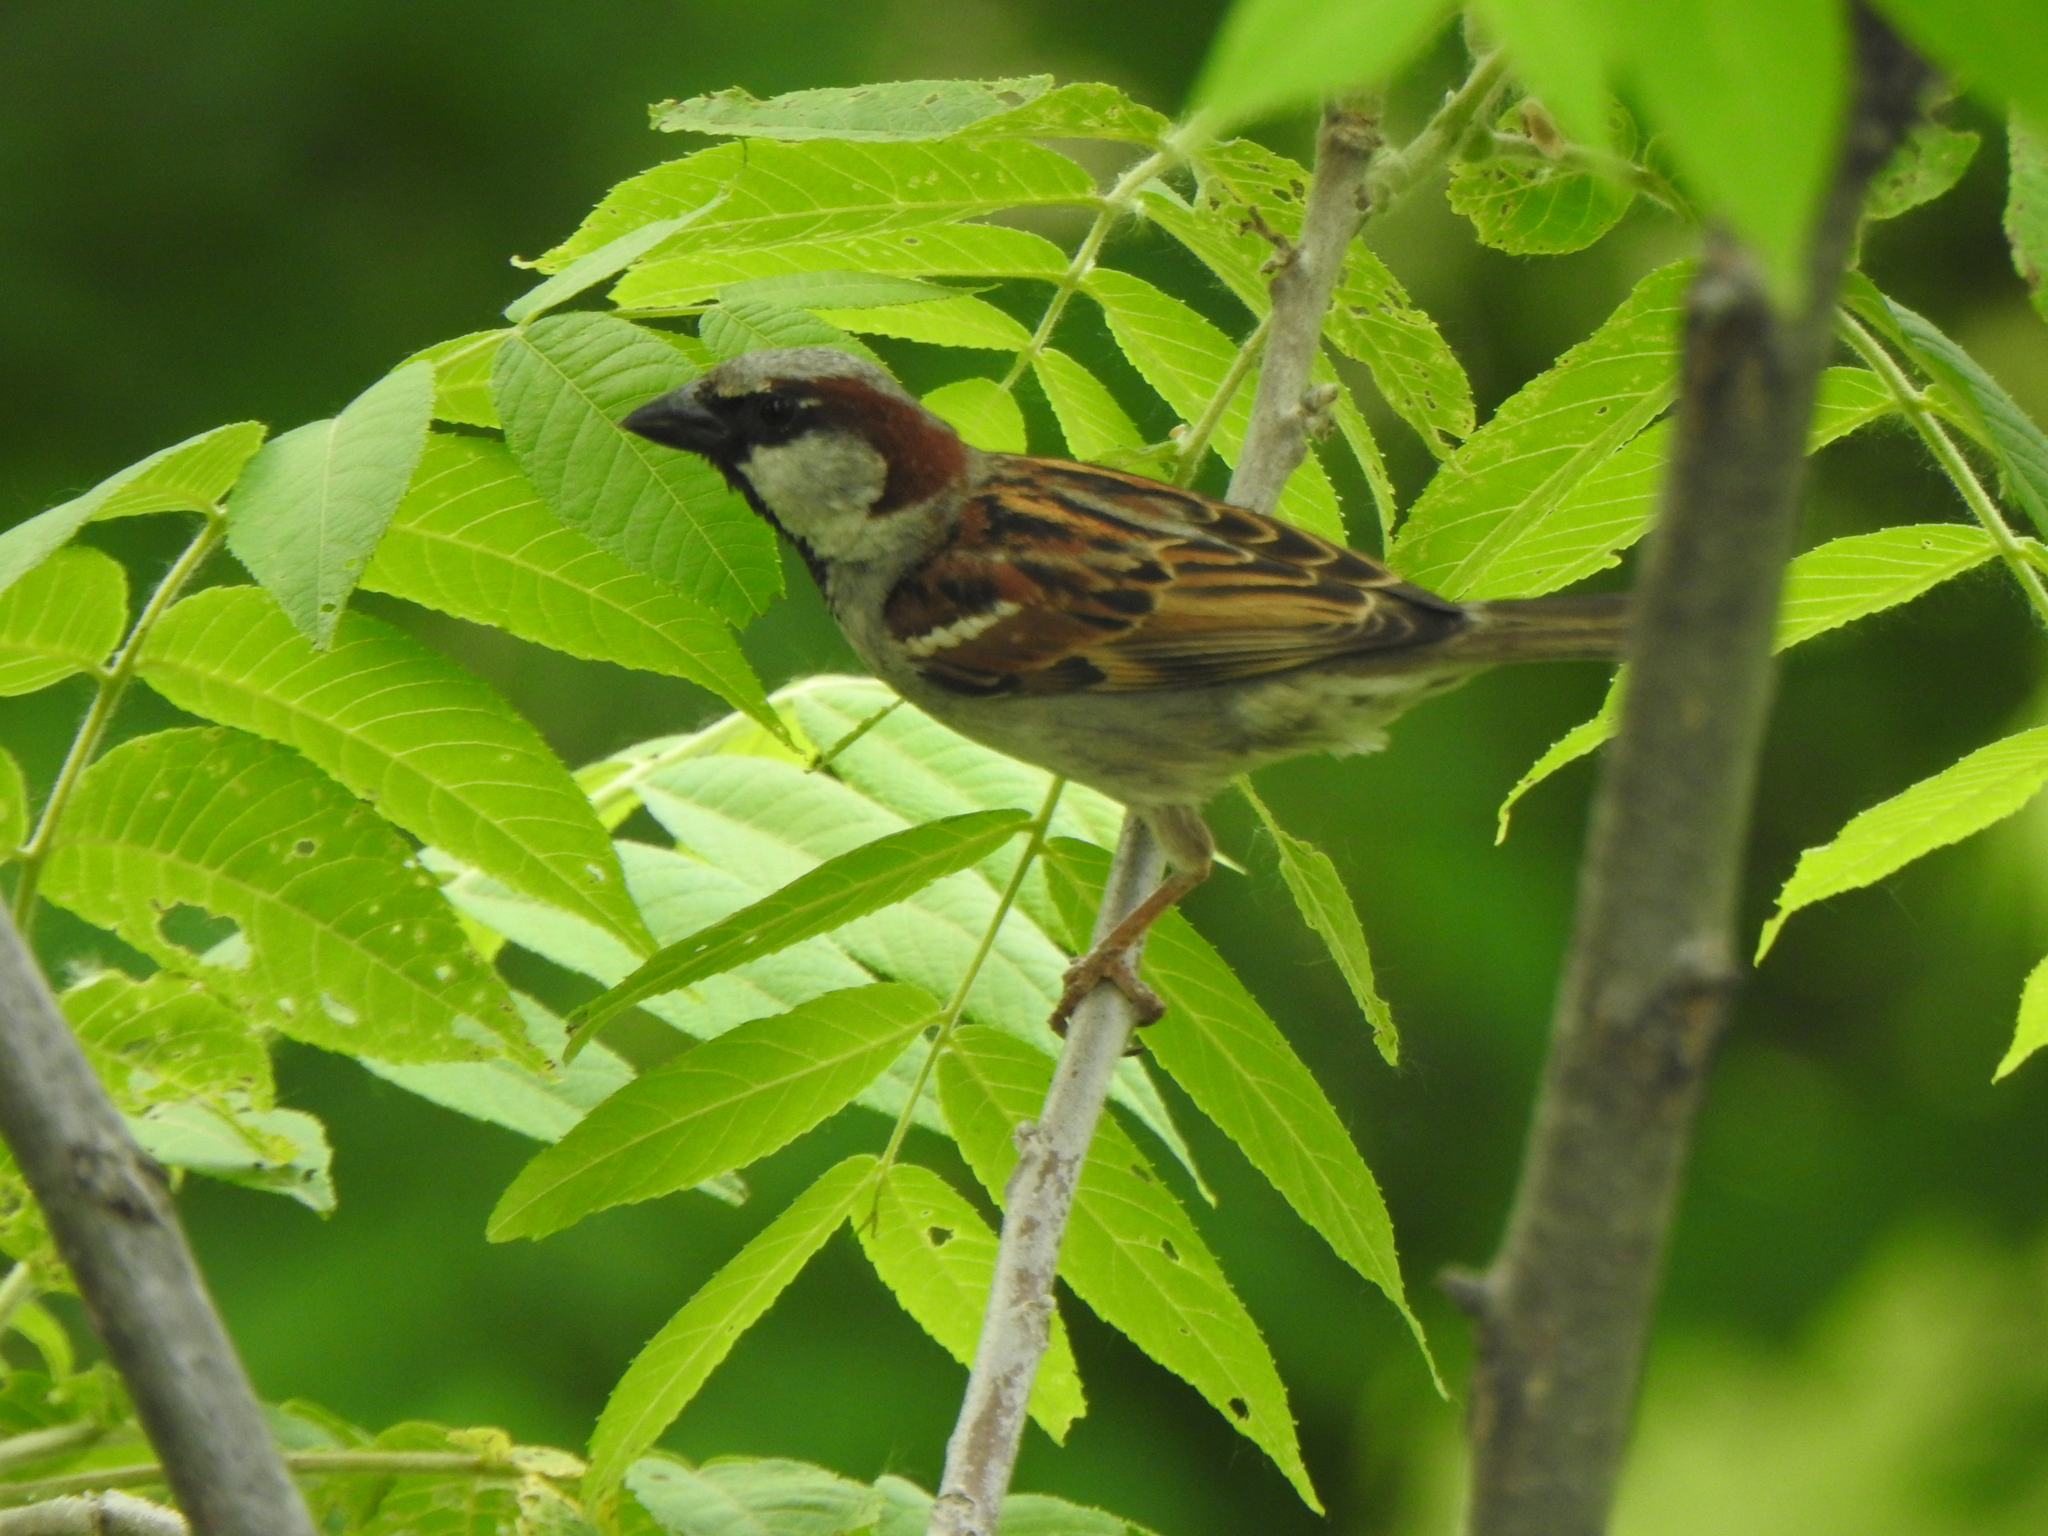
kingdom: Animalia
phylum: Chordata
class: Aves
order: Passeriformes
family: Passeridae
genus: Passer
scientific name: Passer domesticus
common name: House sparrow
